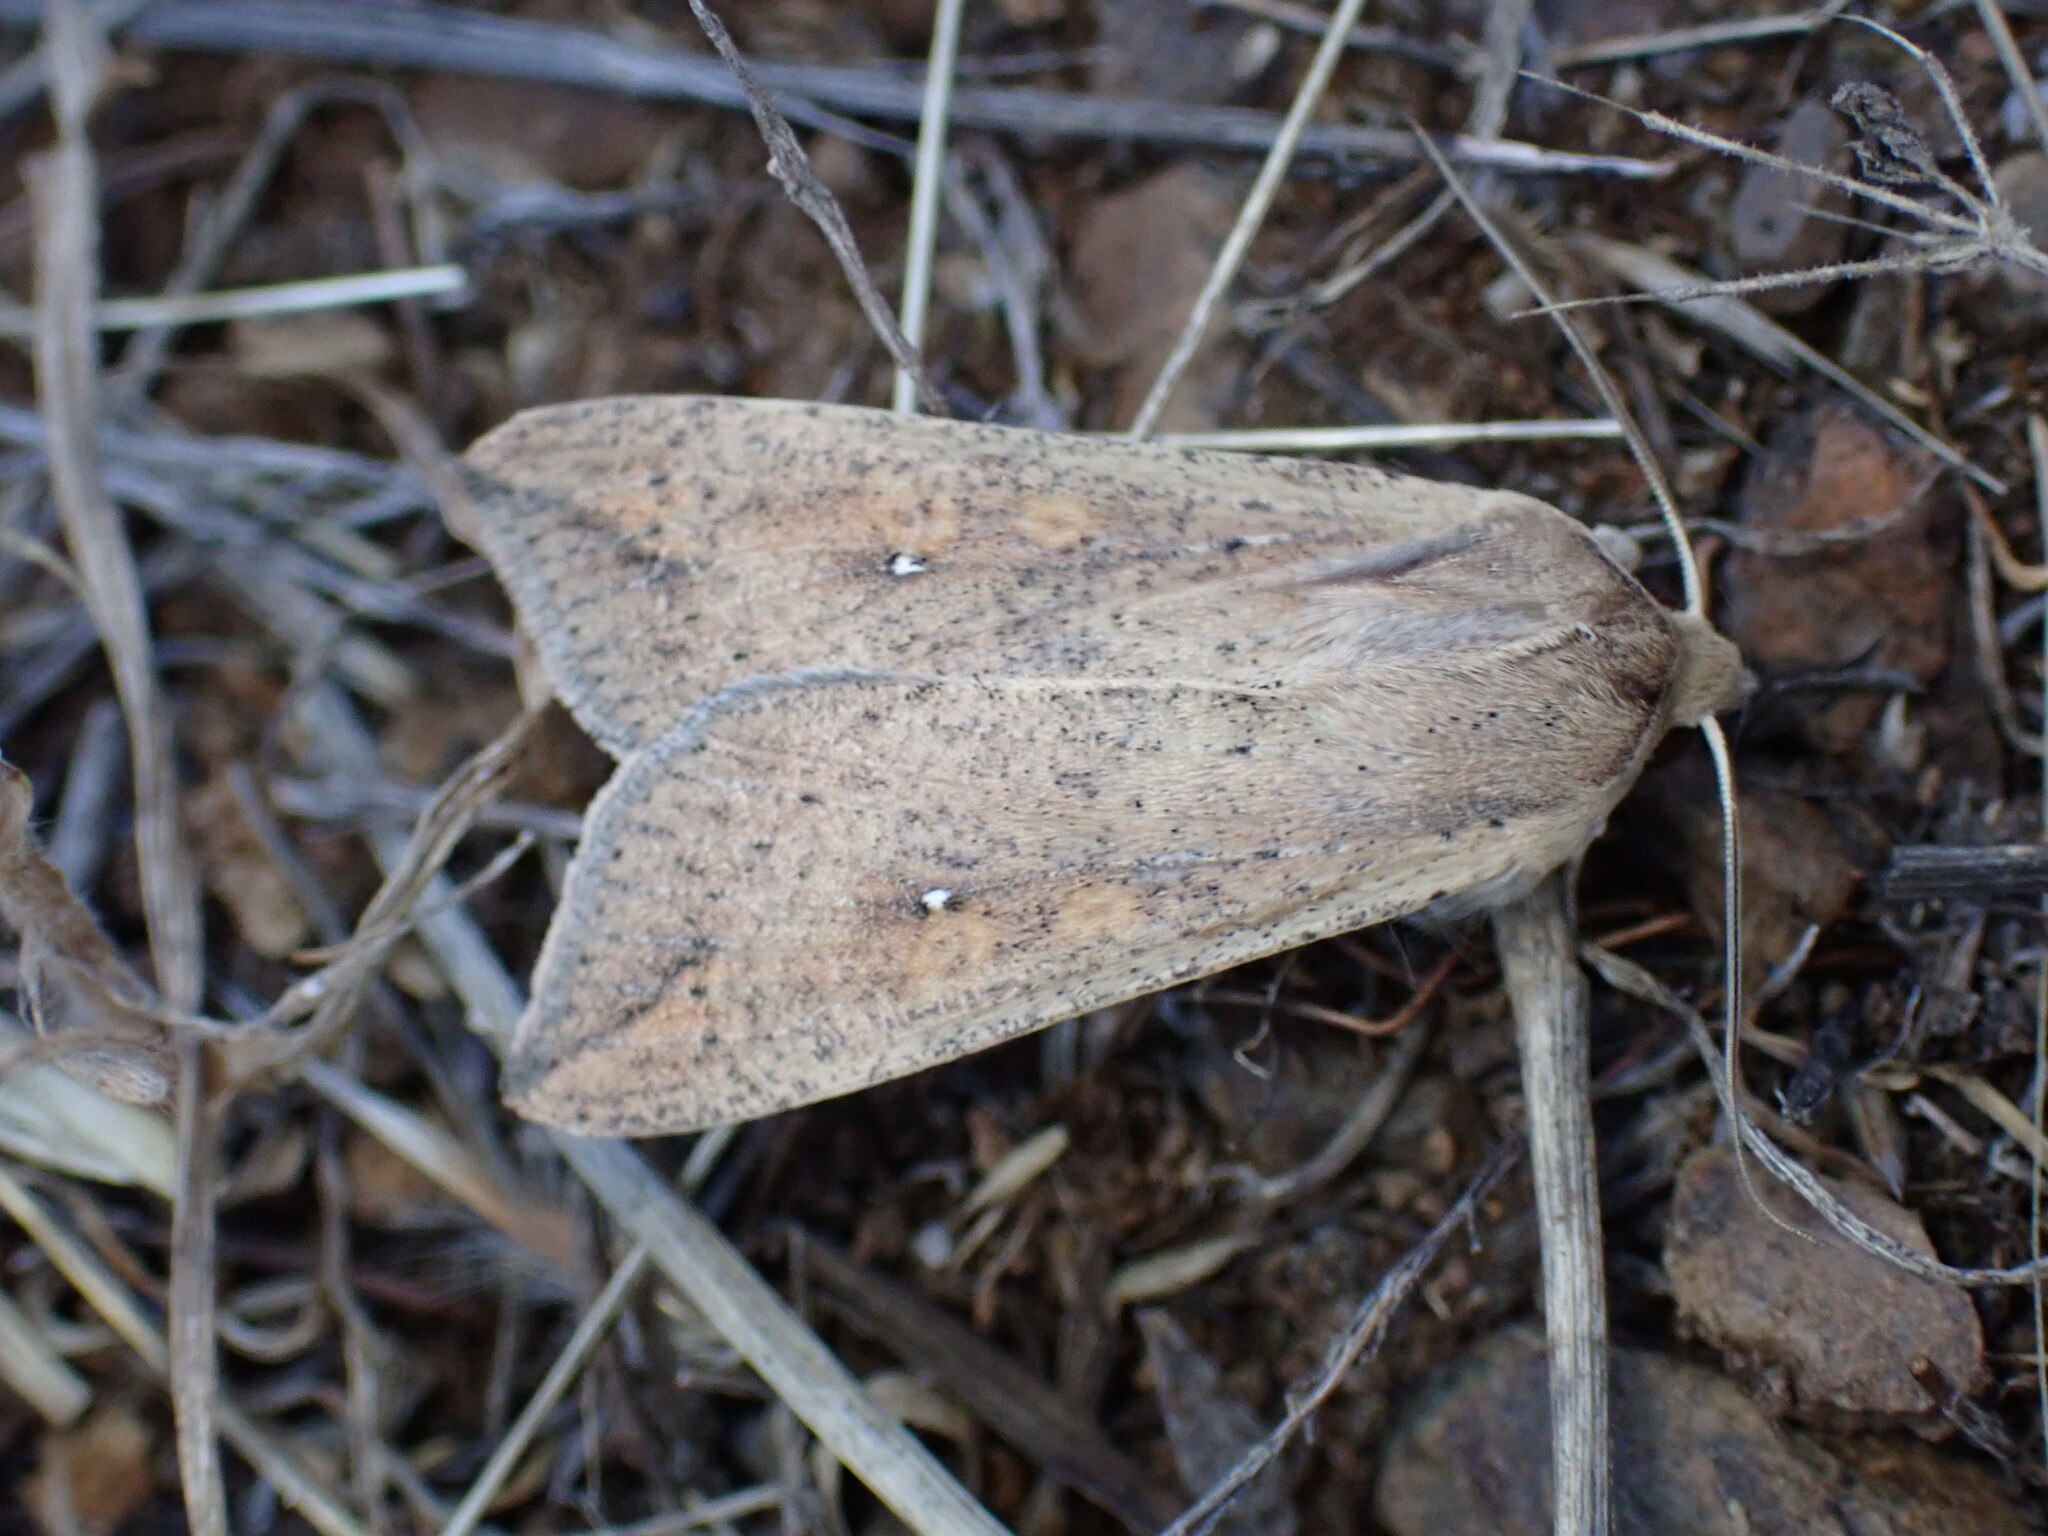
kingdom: Animalia
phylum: Arthropoda
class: Insecta
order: Lepidoptera
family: Noctuidae
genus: Mythimna
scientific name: Mythimna unipuncta
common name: White-speck
